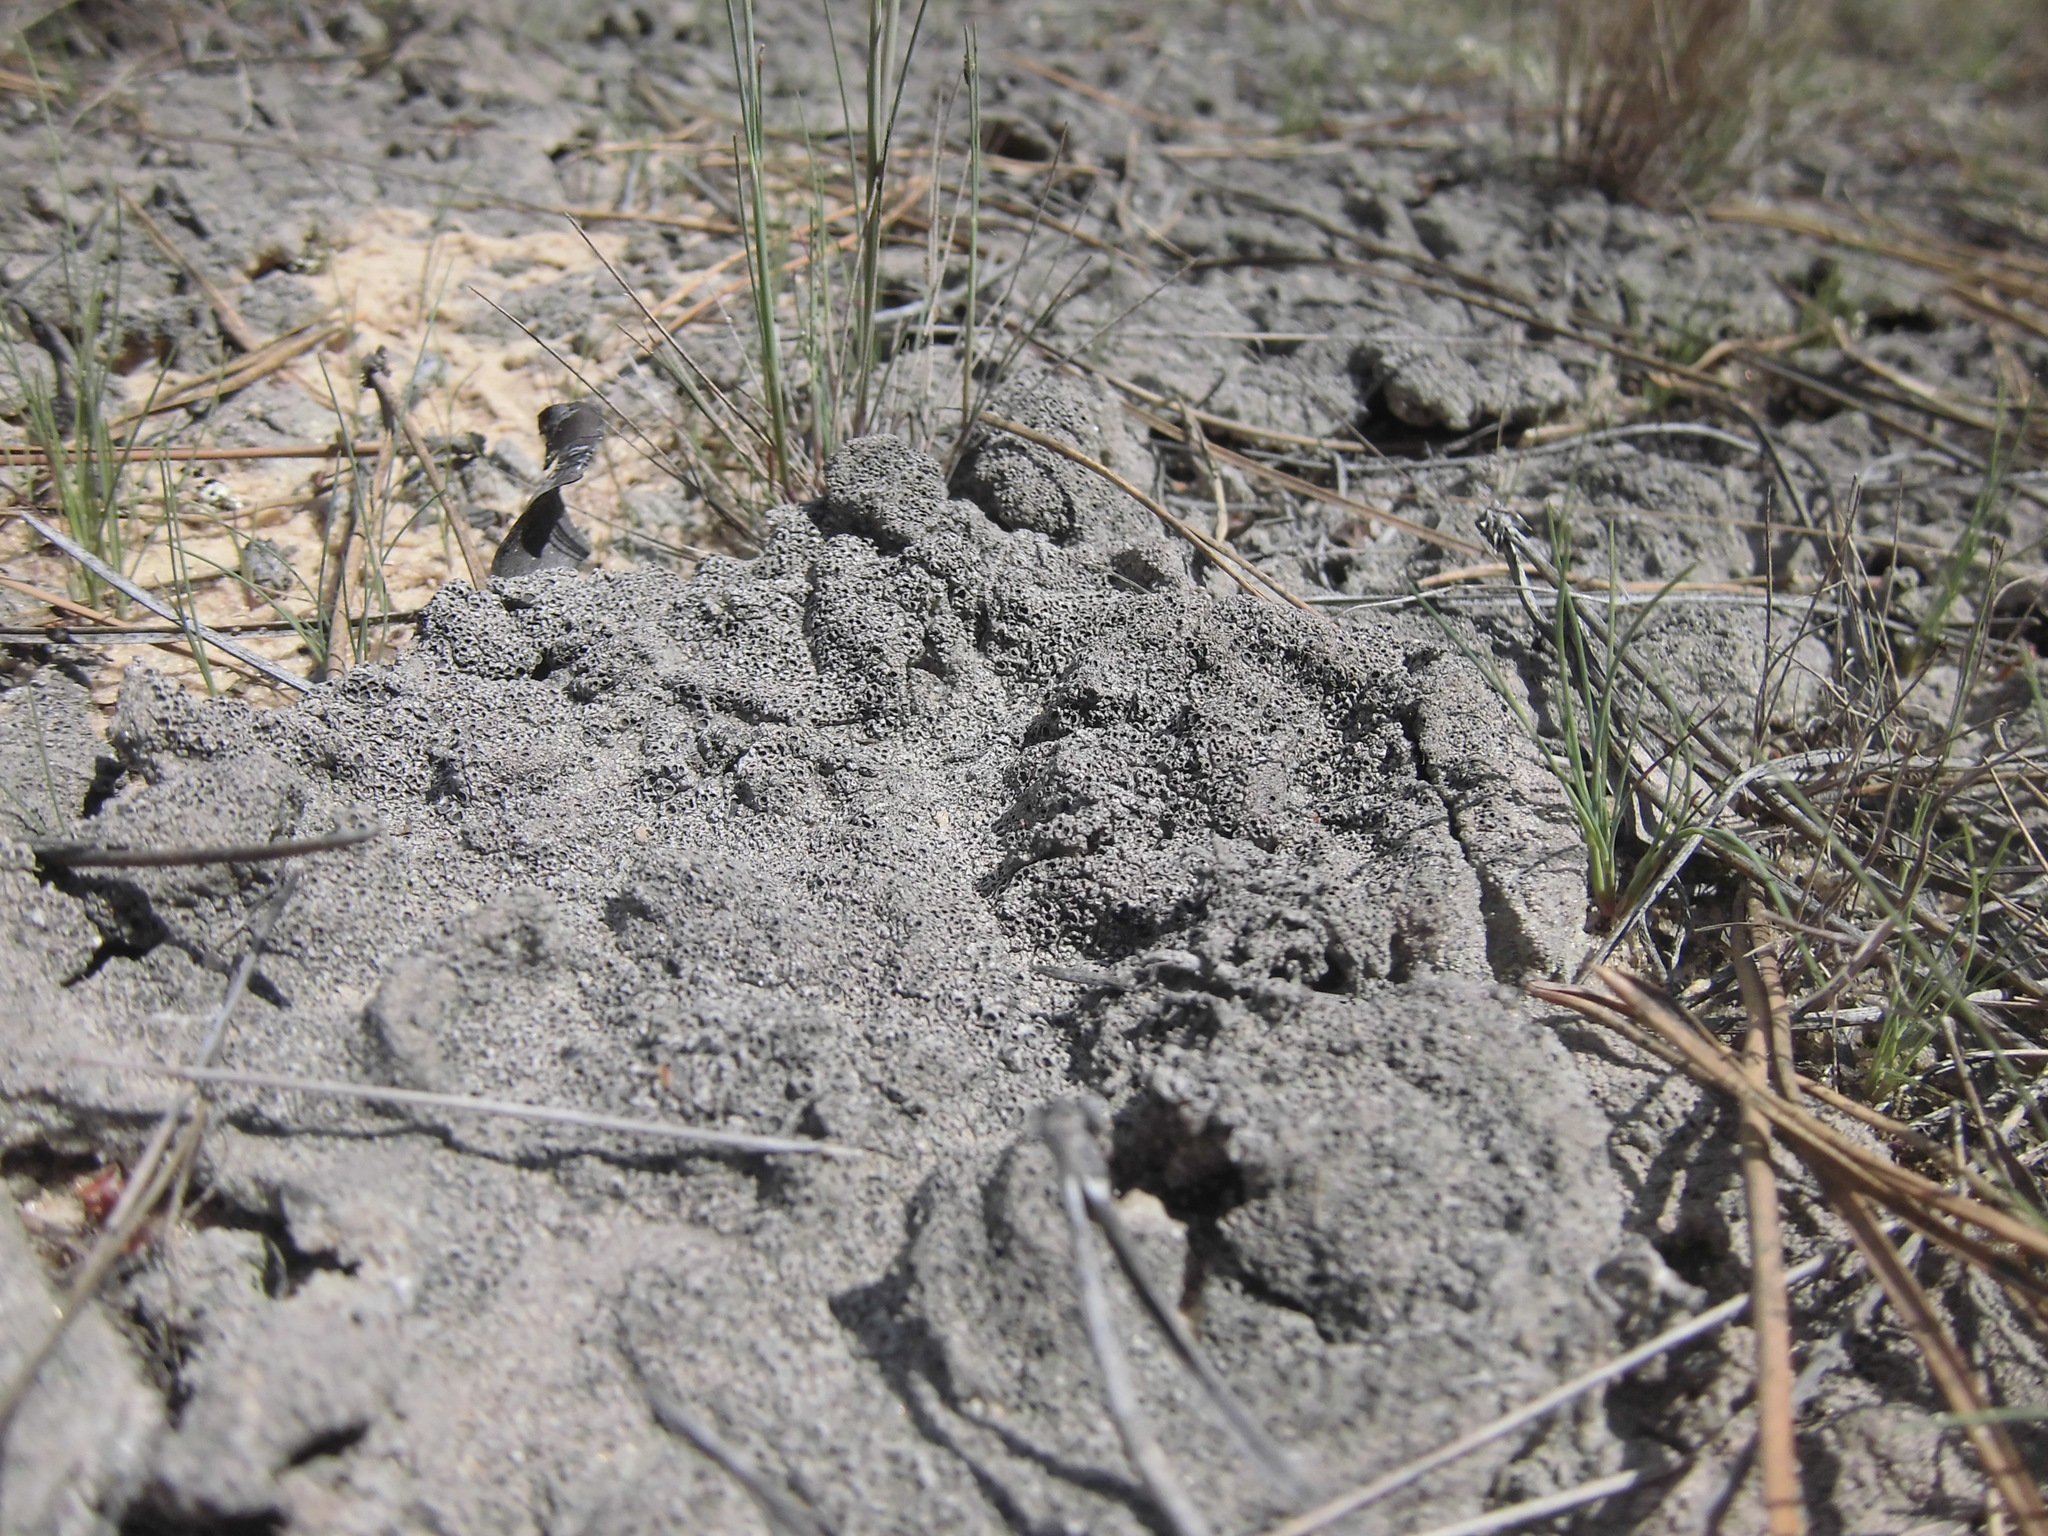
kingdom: Fungi
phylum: Ascomycota
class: Lecanoromycetes
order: Ostropales
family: Graphidaceae
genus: Diploschistes
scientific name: Diploschistes muscorum
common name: Cowpie lichen
